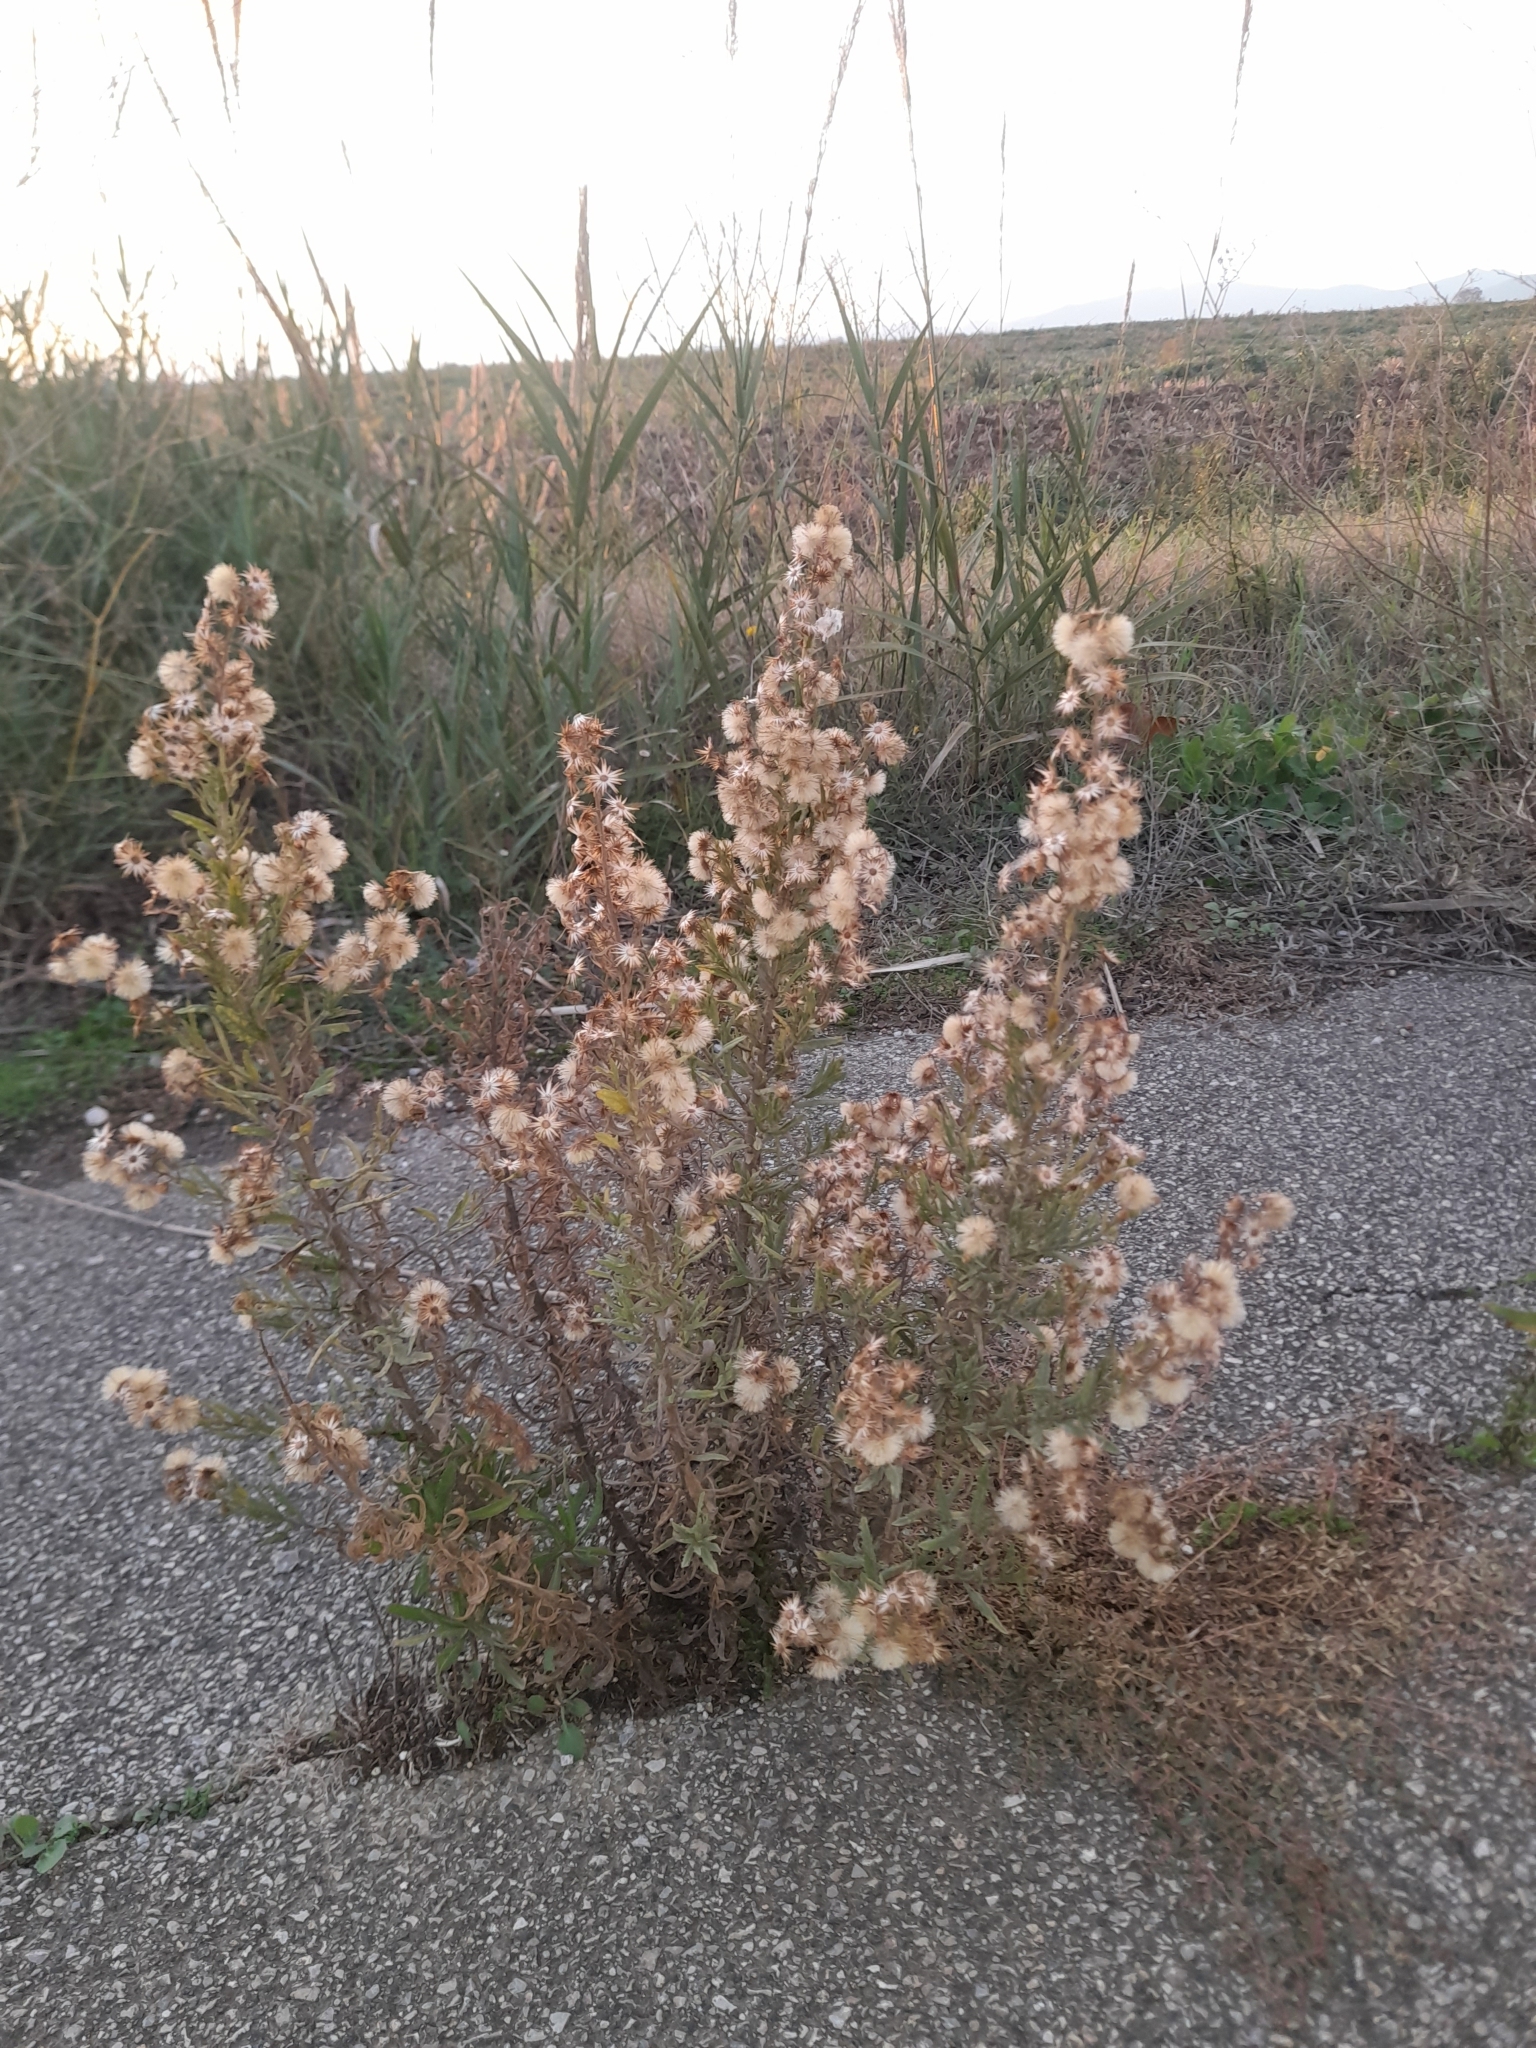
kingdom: Plantae
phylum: Tracheophyta
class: Magnoliopsida
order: Asterales
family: Asteraceae
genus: Dittrichia
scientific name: Dittrichia viscosa
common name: Woody fleabane
